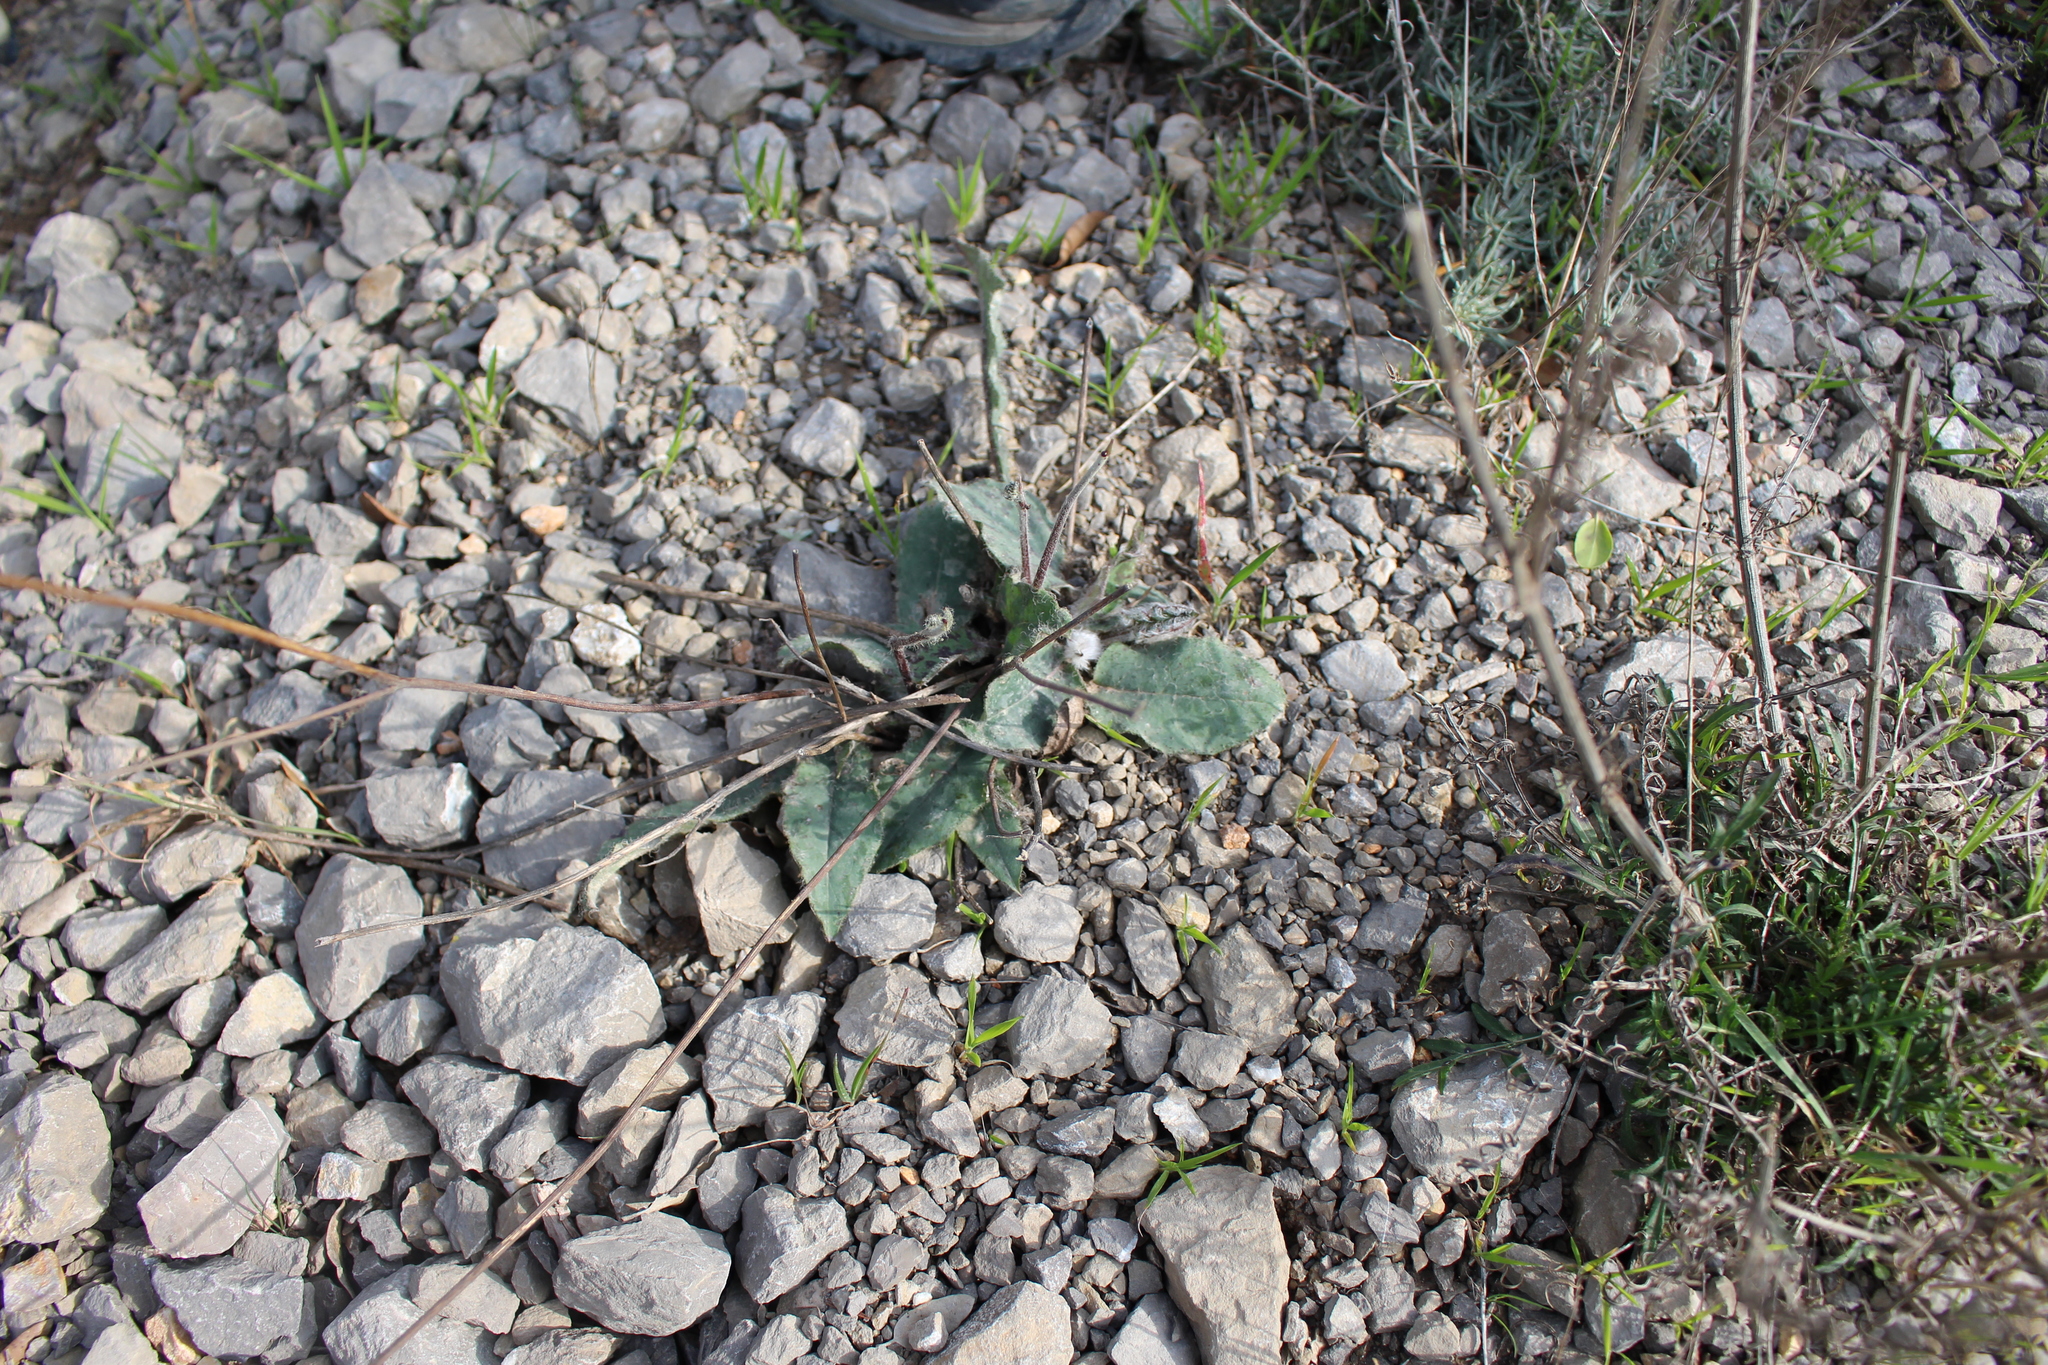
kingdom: Plantae
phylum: Tracheophyta
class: Magnoliopsida
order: Asterales
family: Asteraceae
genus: Hieracium
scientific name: Hieracium glaucinum
